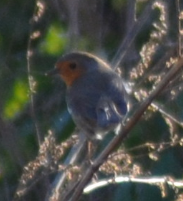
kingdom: Animalia
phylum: Chordata
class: Aves
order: Passeriformes
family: Muscicapidae
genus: Erithacus
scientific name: Erithacus rubecula
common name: European robin
